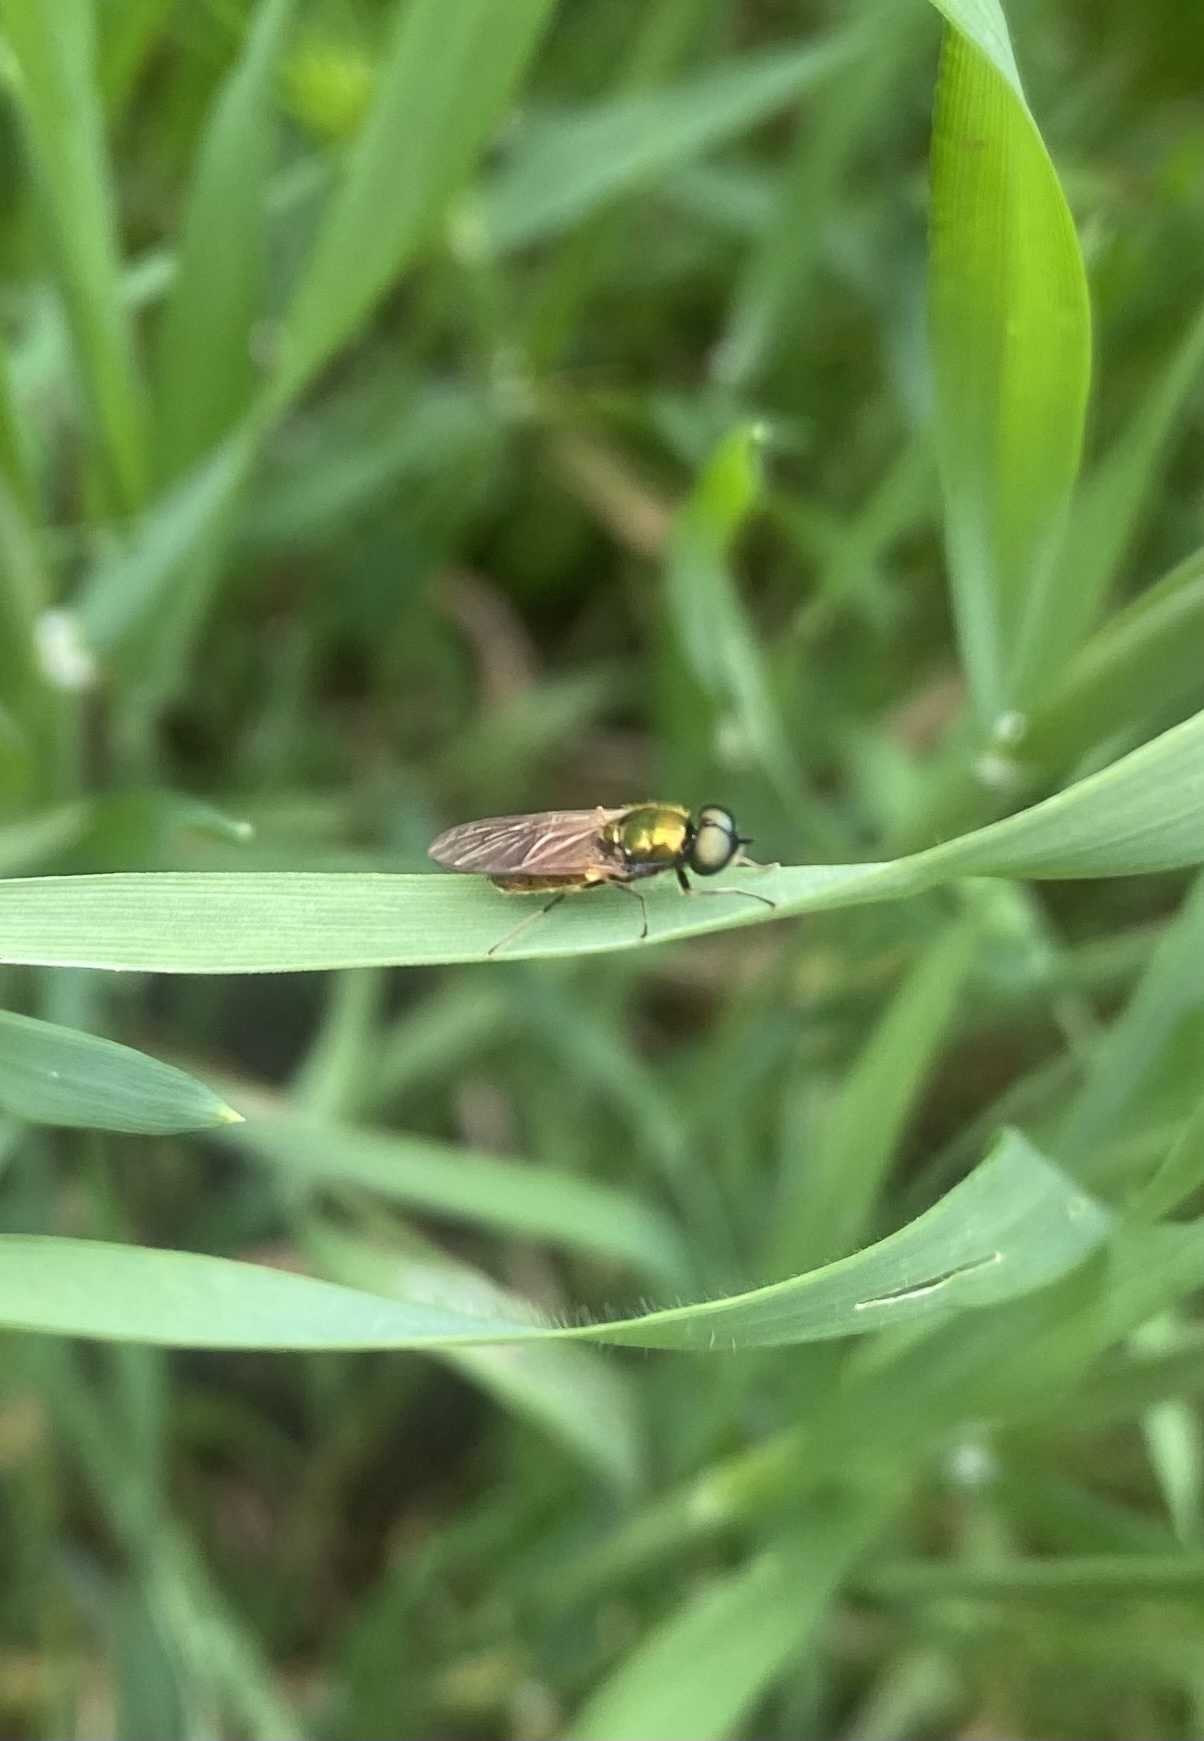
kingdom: Animalia
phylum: Arthropoda
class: Insecta
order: Diptera
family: Stratiomyidae
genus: Chloromyia
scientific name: Chloromyia formosa
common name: Soldier fly
